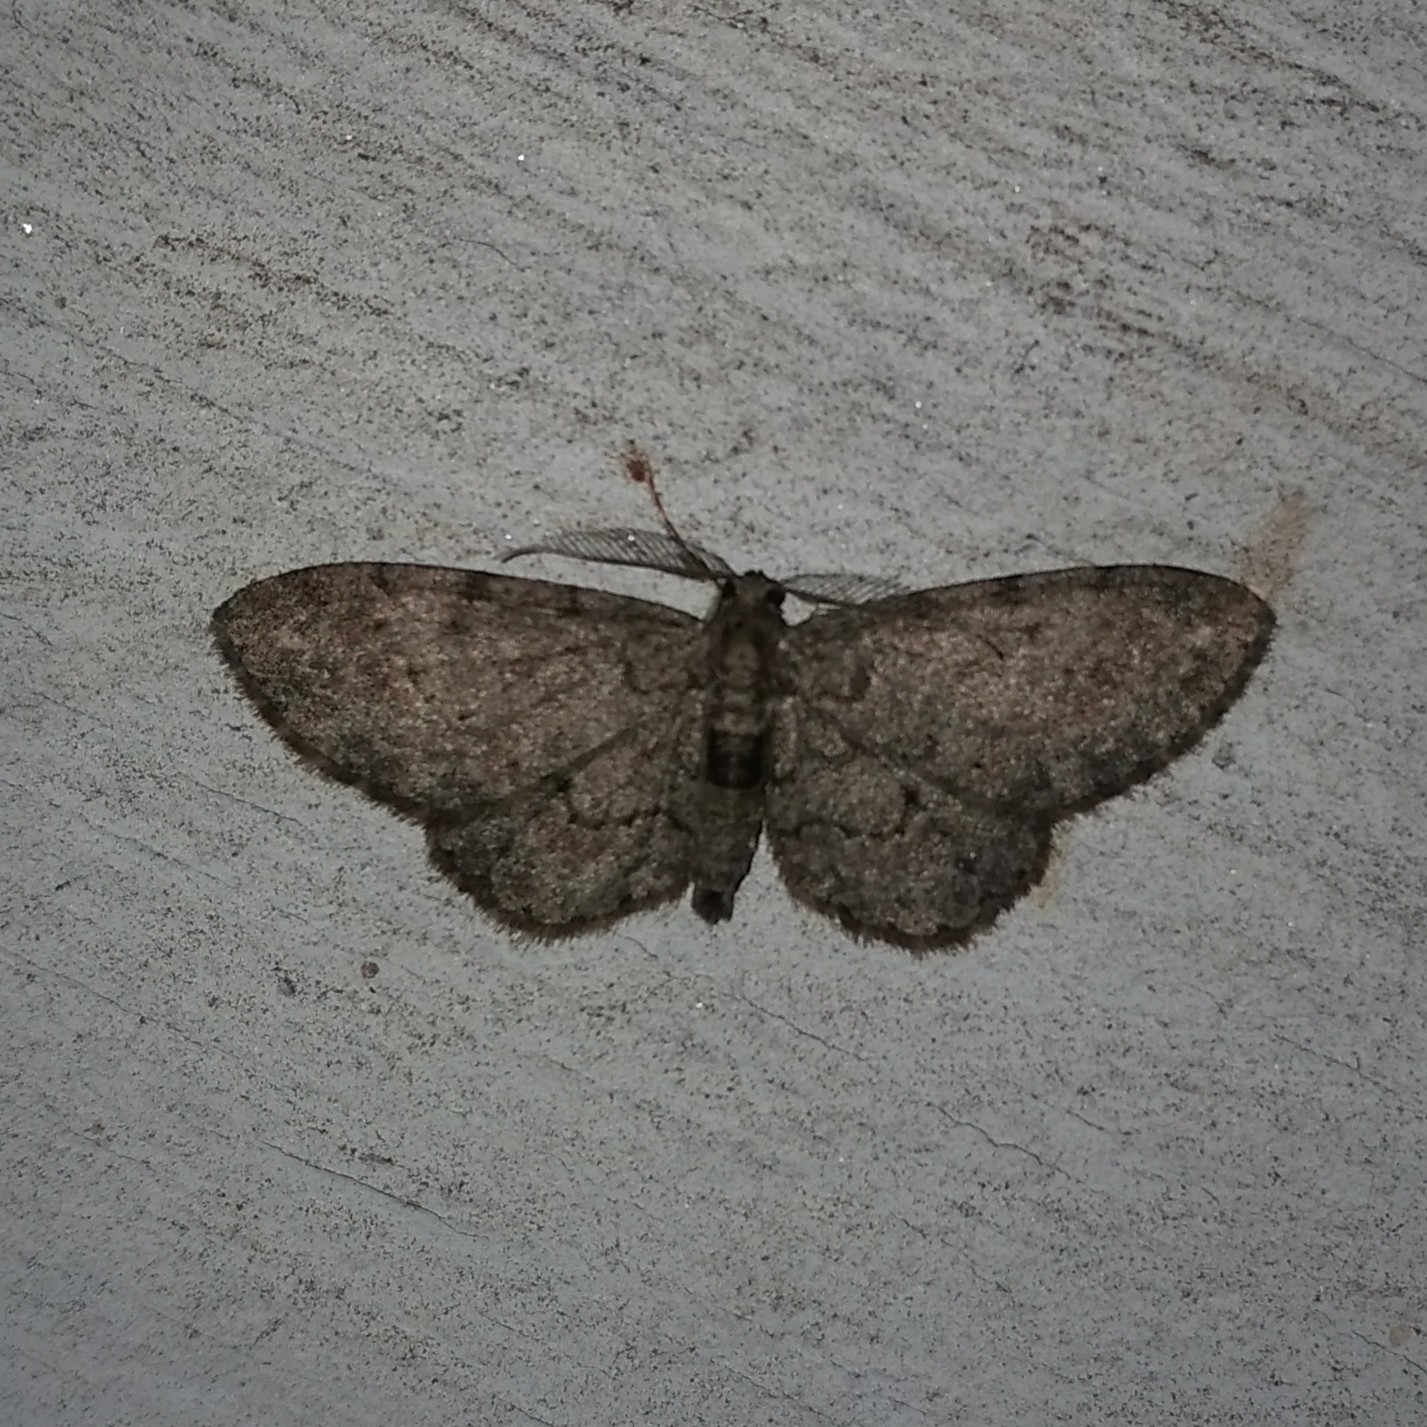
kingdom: Animalia
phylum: Arthropoda
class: Insecta
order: Lepidoptera
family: Geometridae
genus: Glenoides
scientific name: Glenoides texanaria
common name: Texas gray
